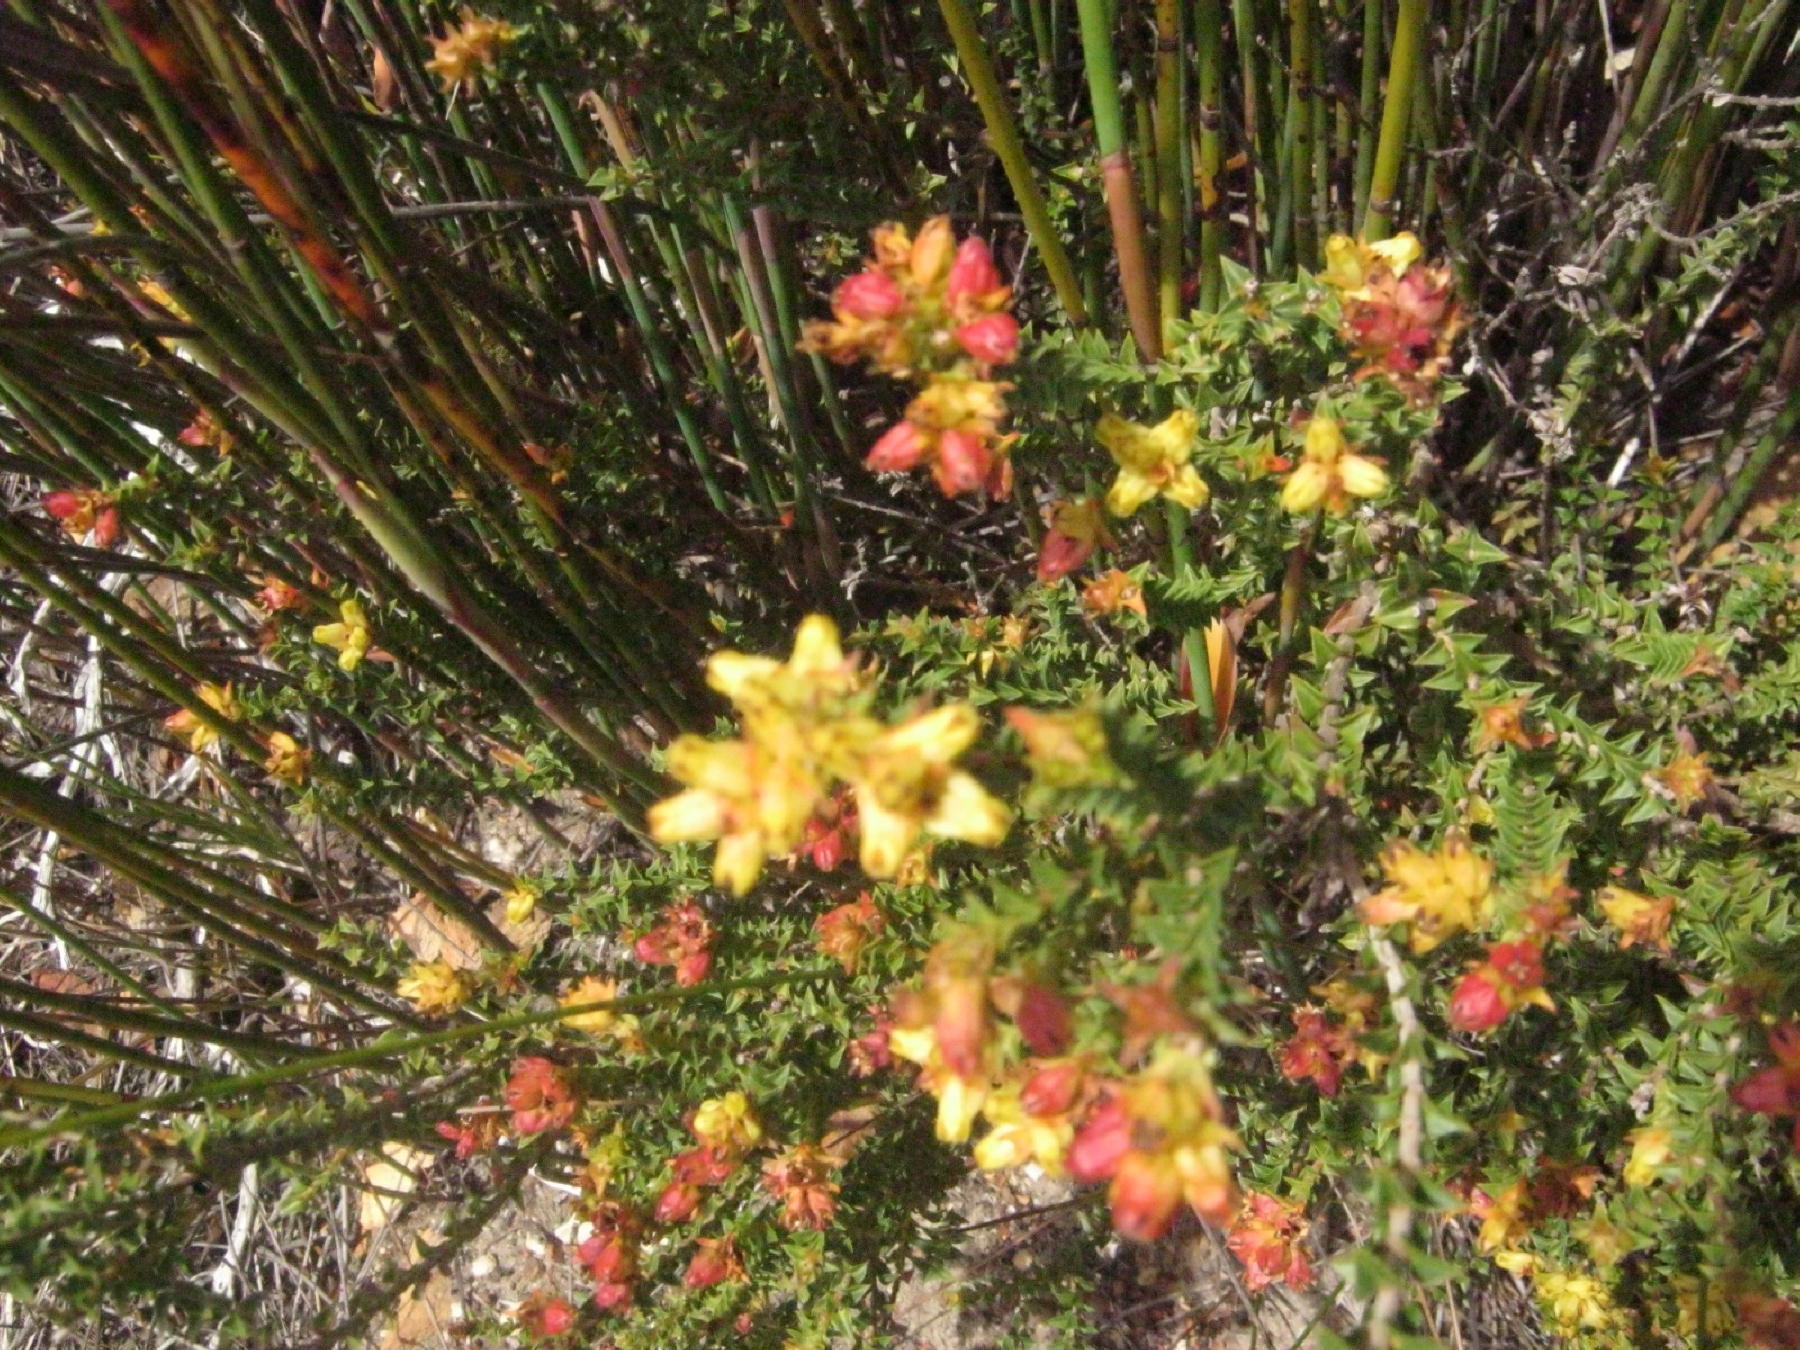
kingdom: Plantae
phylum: Tracheophyta
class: Magnoliopsida
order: Myrtales
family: Penaeaceae
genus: Penaea
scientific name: Penaea mucronata
